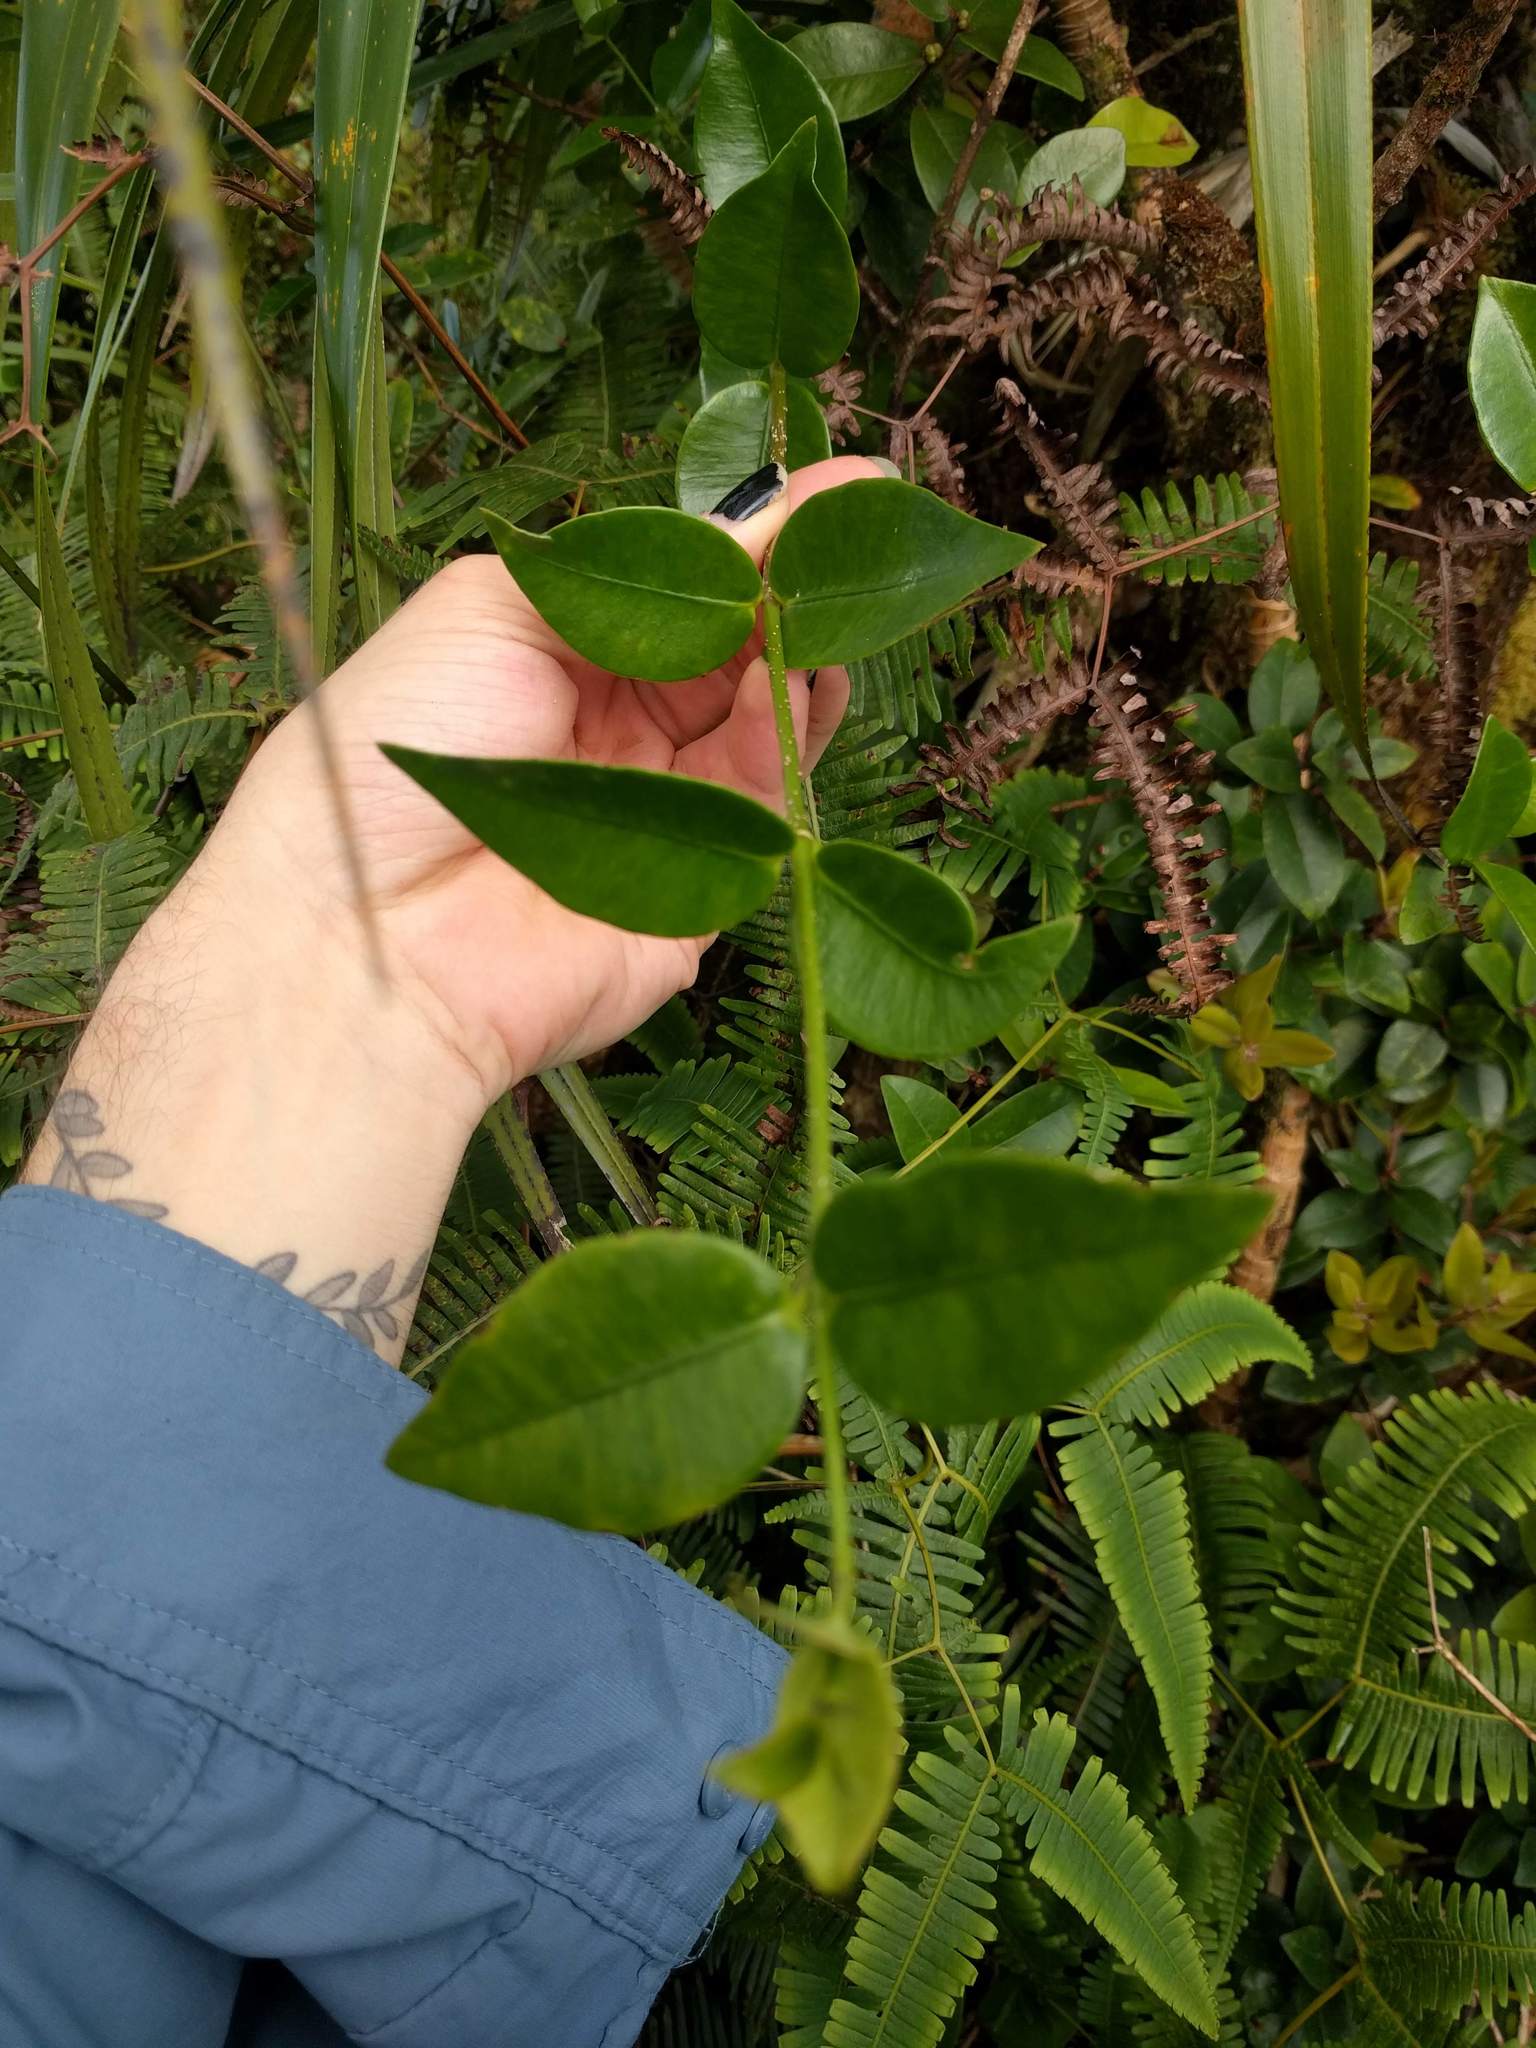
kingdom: Plantae
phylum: Tracheophyta
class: Magnoliopsida
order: Gentianales
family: Apocynaceae
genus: Alyxia
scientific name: Alyxia stellata
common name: Maile
